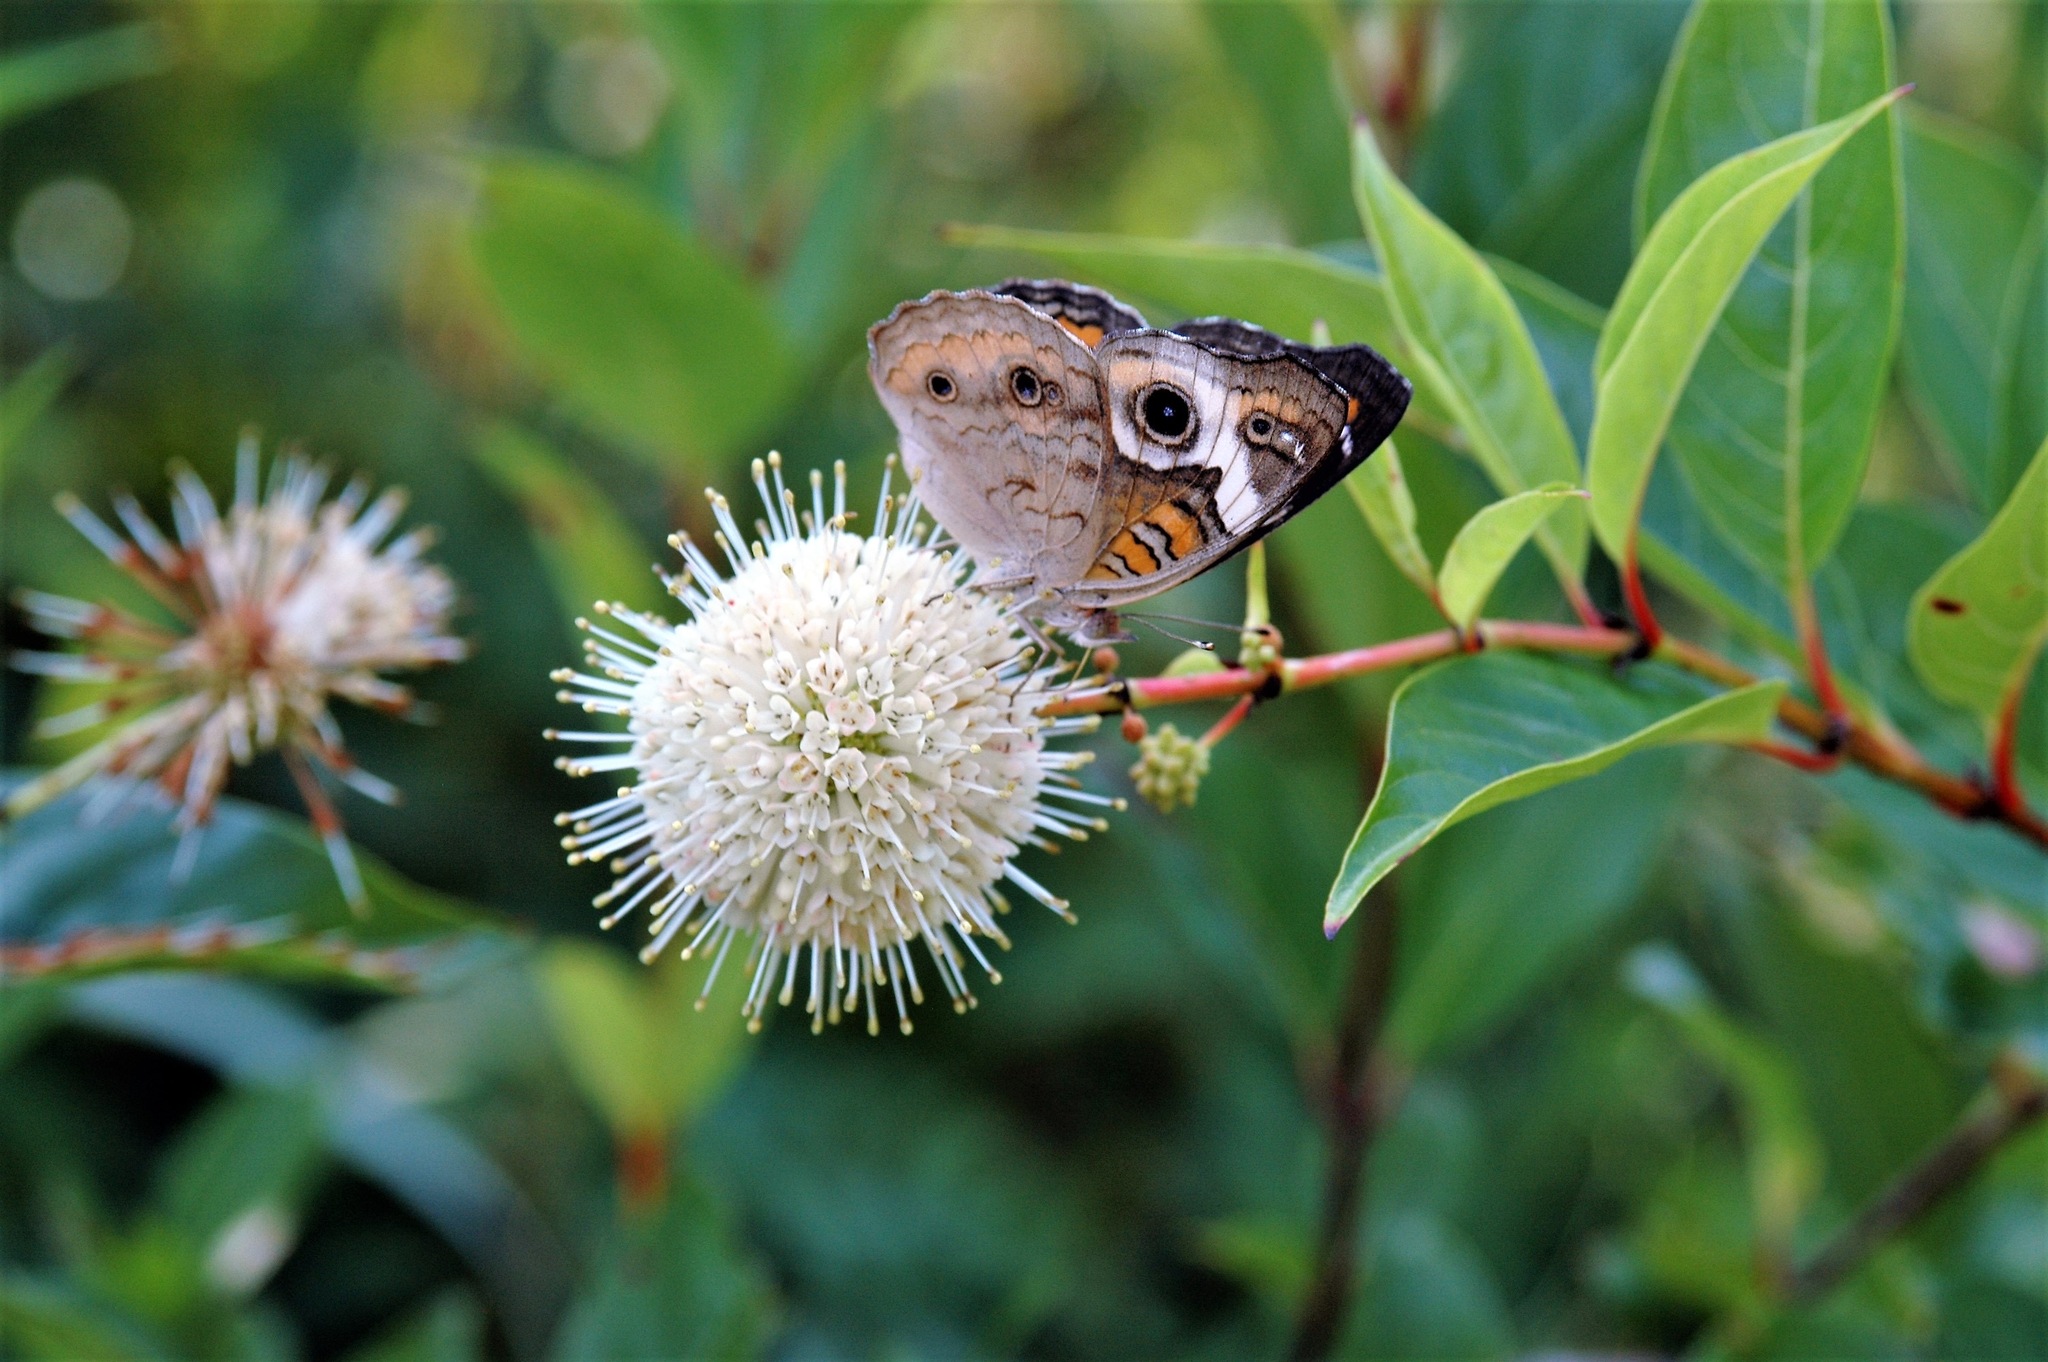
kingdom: Animalia
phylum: Arthropoda
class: Insecta
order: Lepidoptera
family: Nymphalidae
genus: Junonia
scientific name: Junonia coenia
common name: Common buckeye
